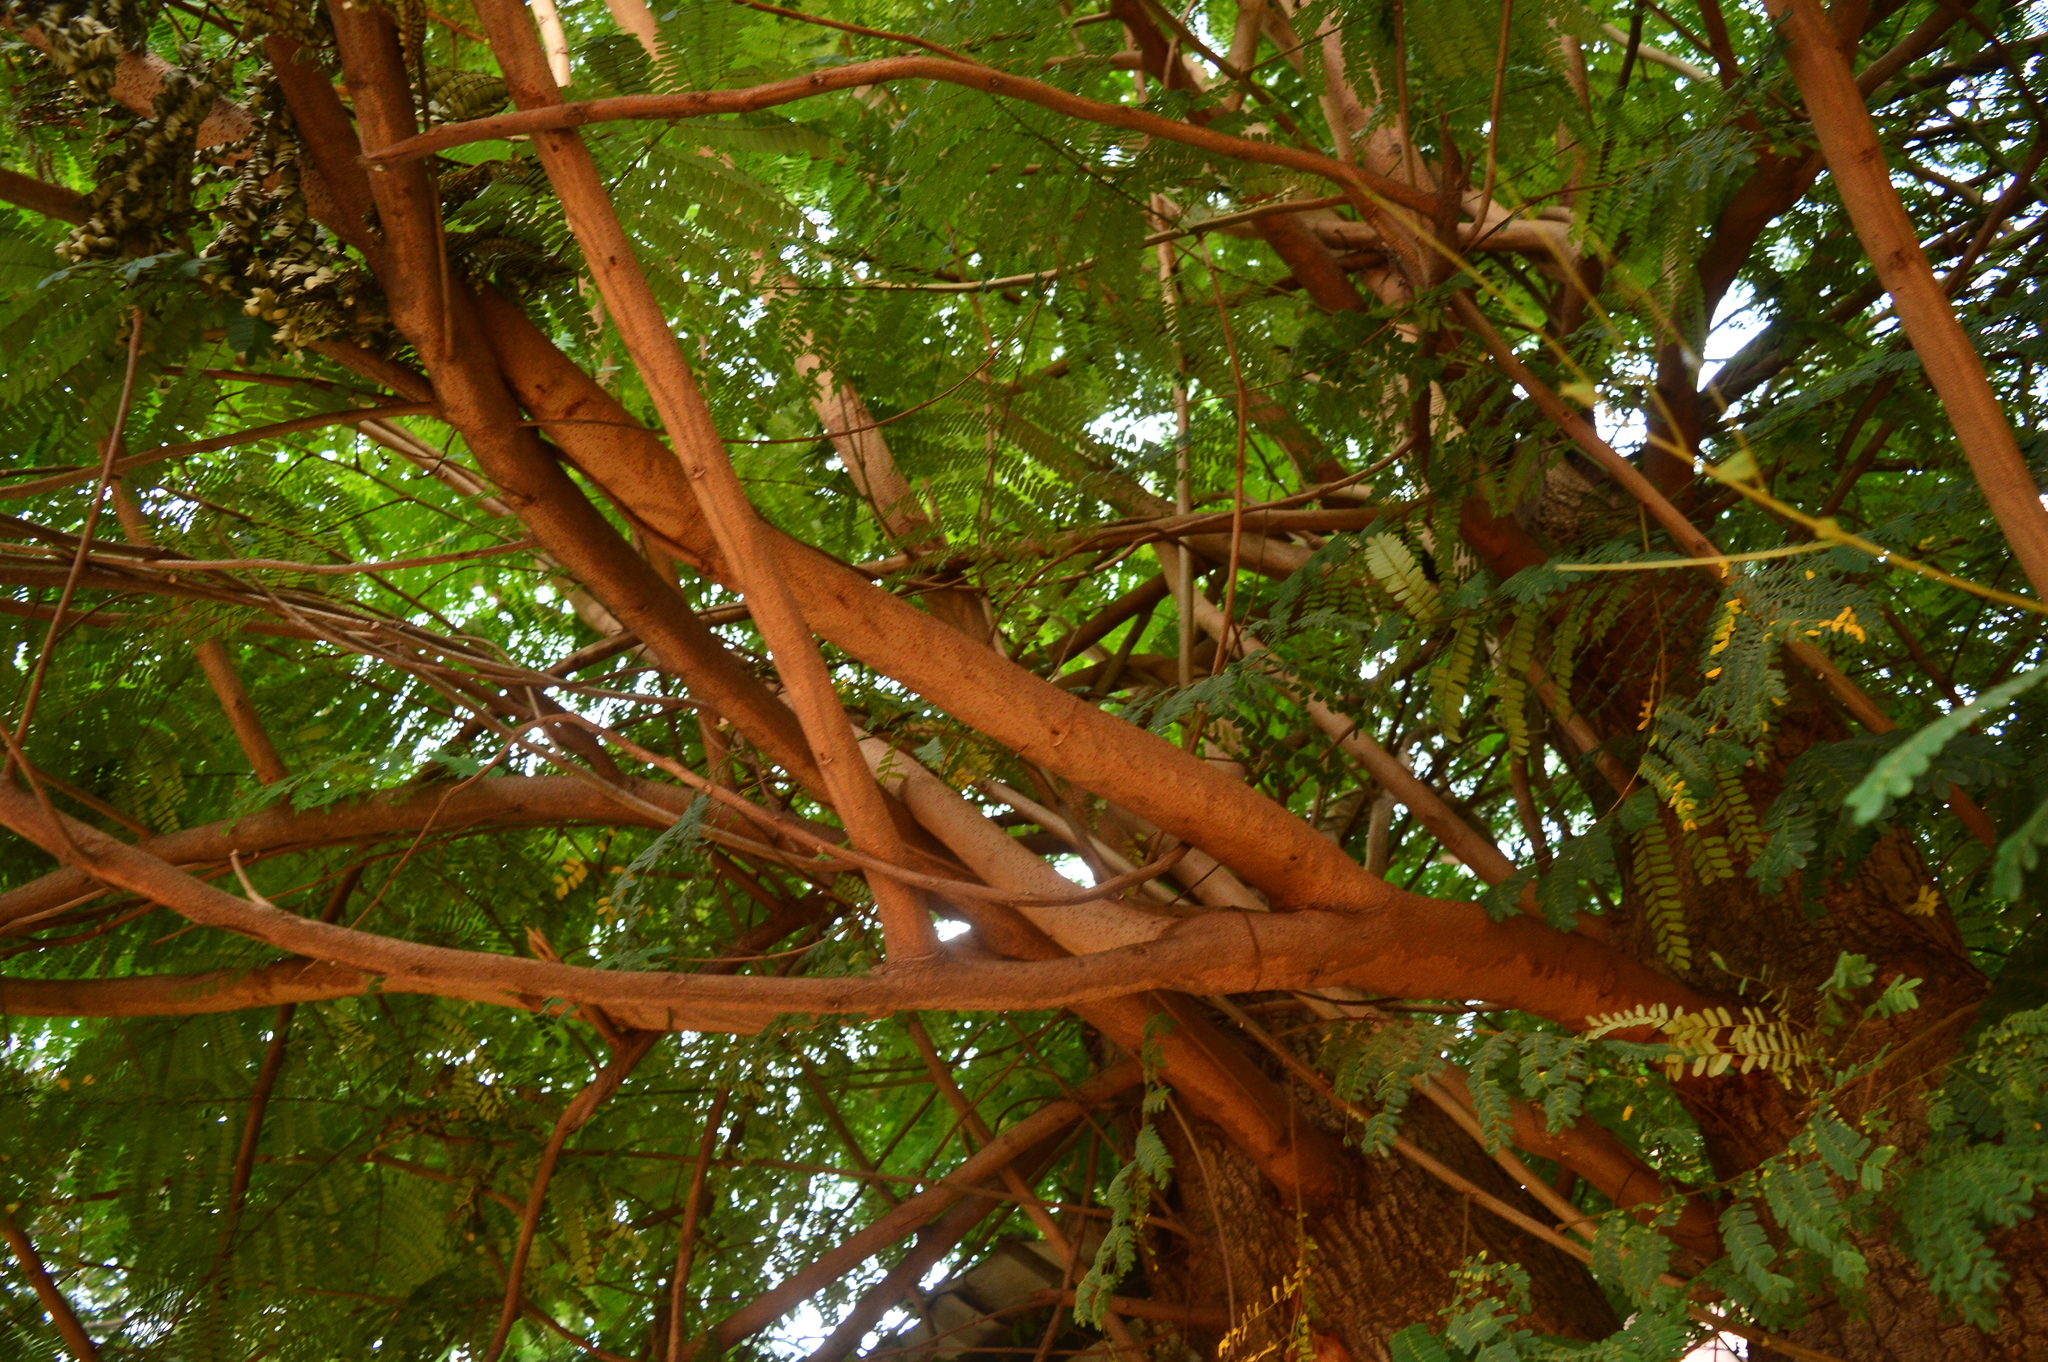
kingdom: Plantae
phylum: Tracheophyta
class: Magnoliopsida
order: Fabales
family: Fabaceae
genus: Tamarindus
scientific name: Tamarindus indica
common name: Tamarind
